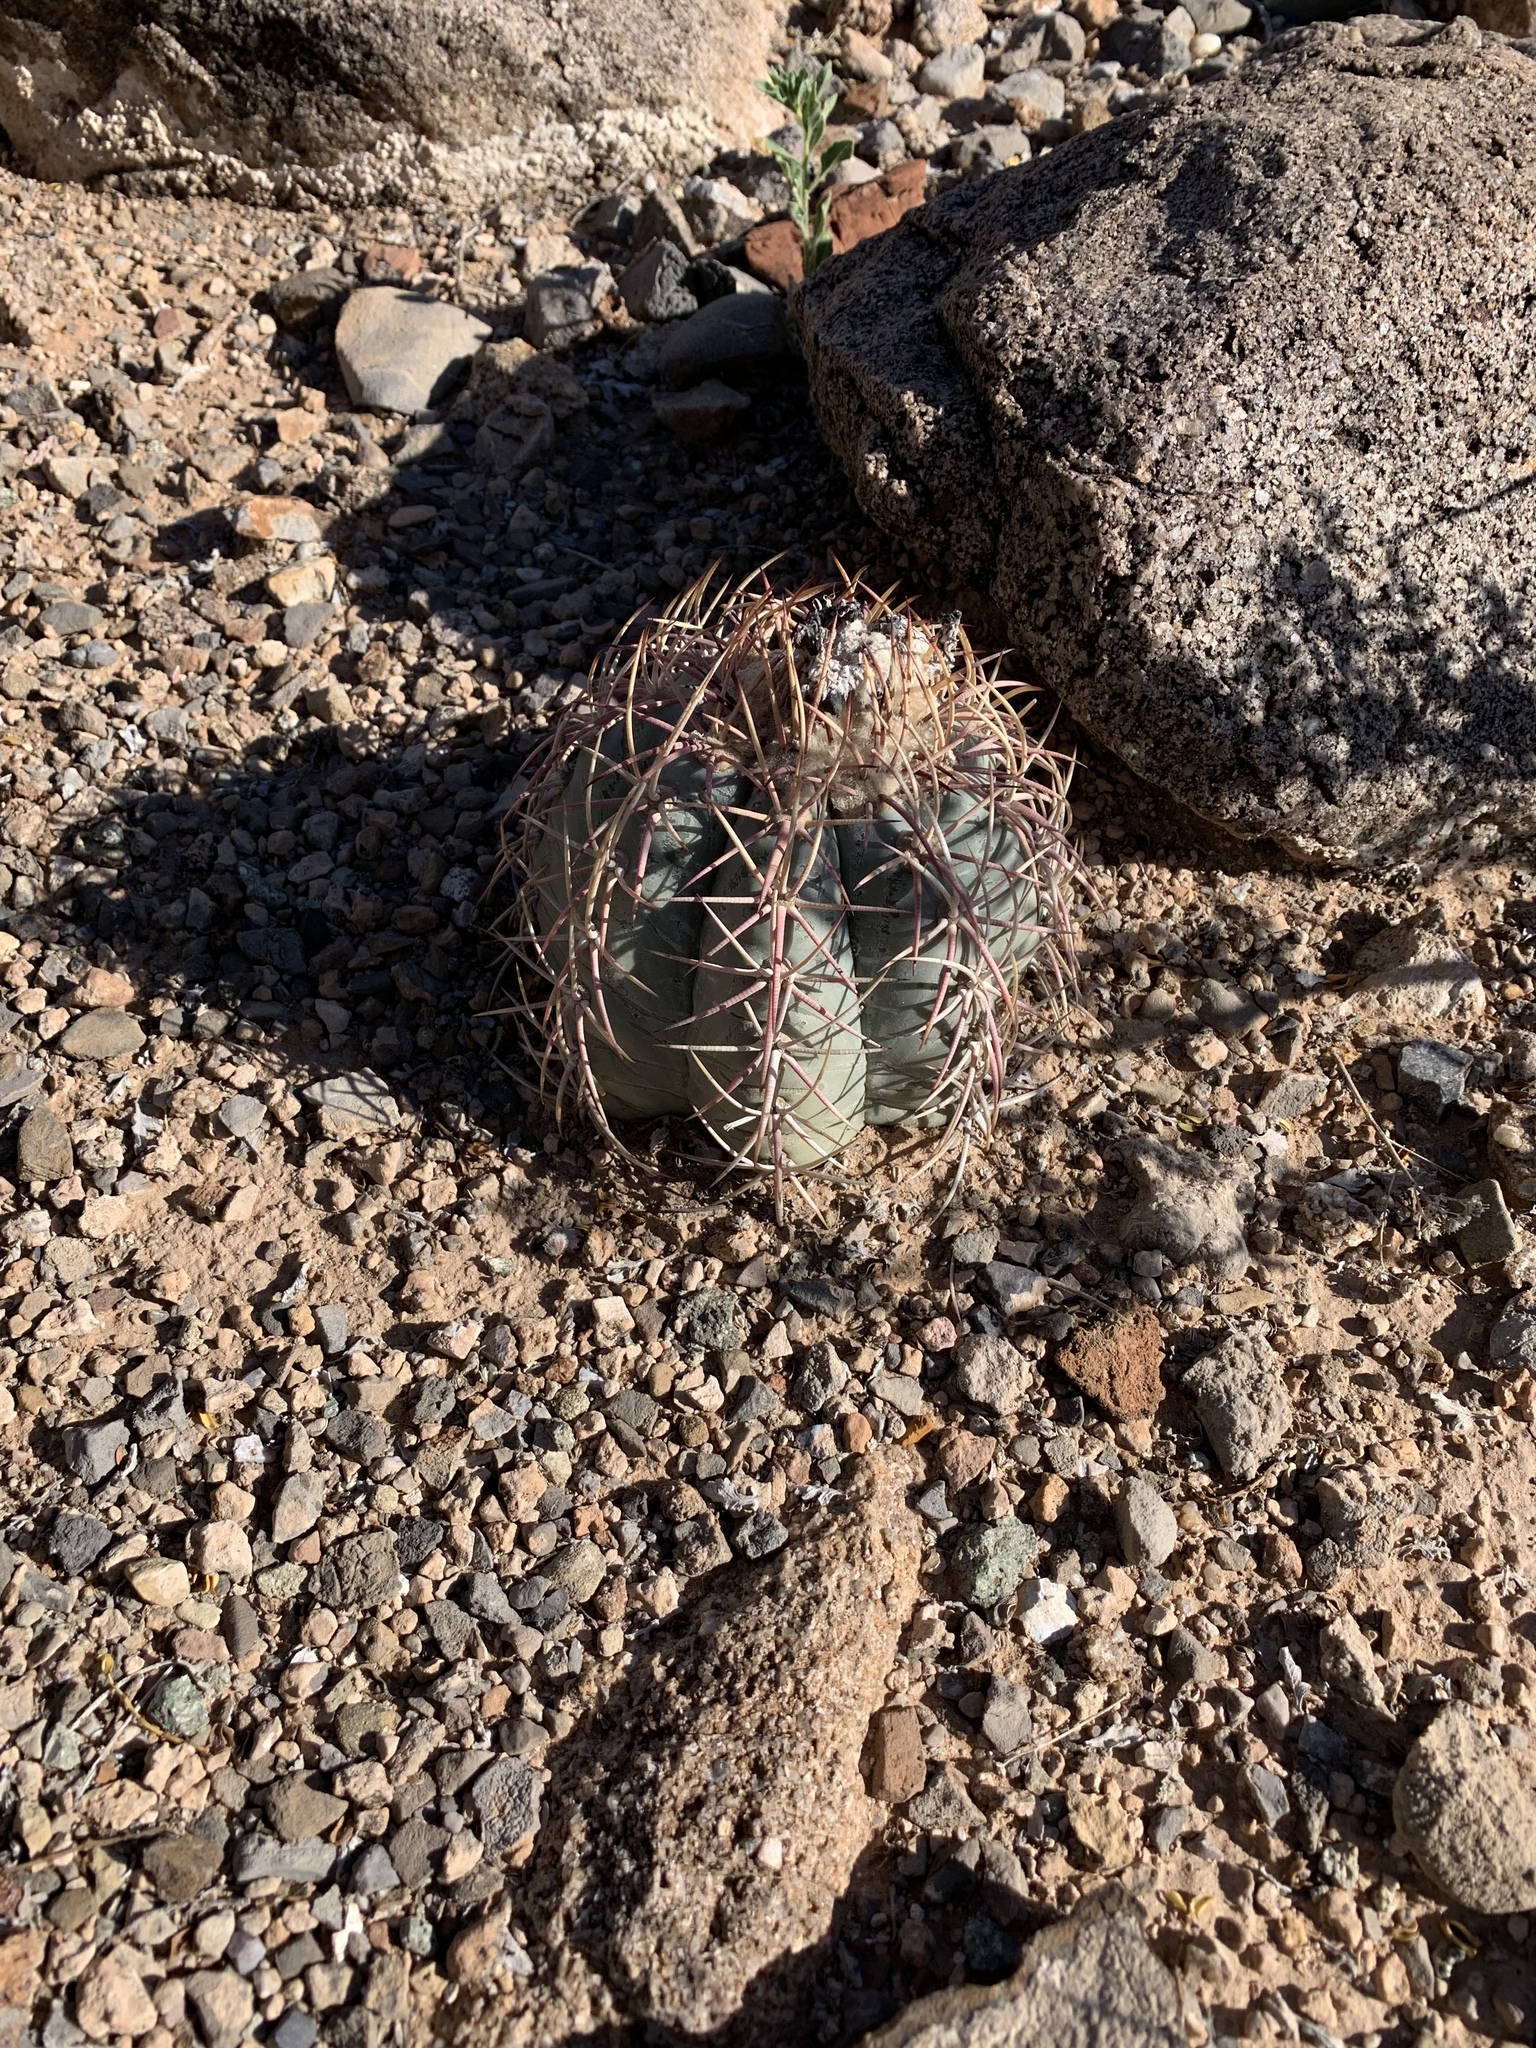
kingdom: Plantae
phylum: Tracheophyta
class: Magnoliopsida
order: Caryophyllales
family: Cactaceae
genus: Echinocactus
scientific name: Echinocactus horizonthalonius
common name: Devilshead
